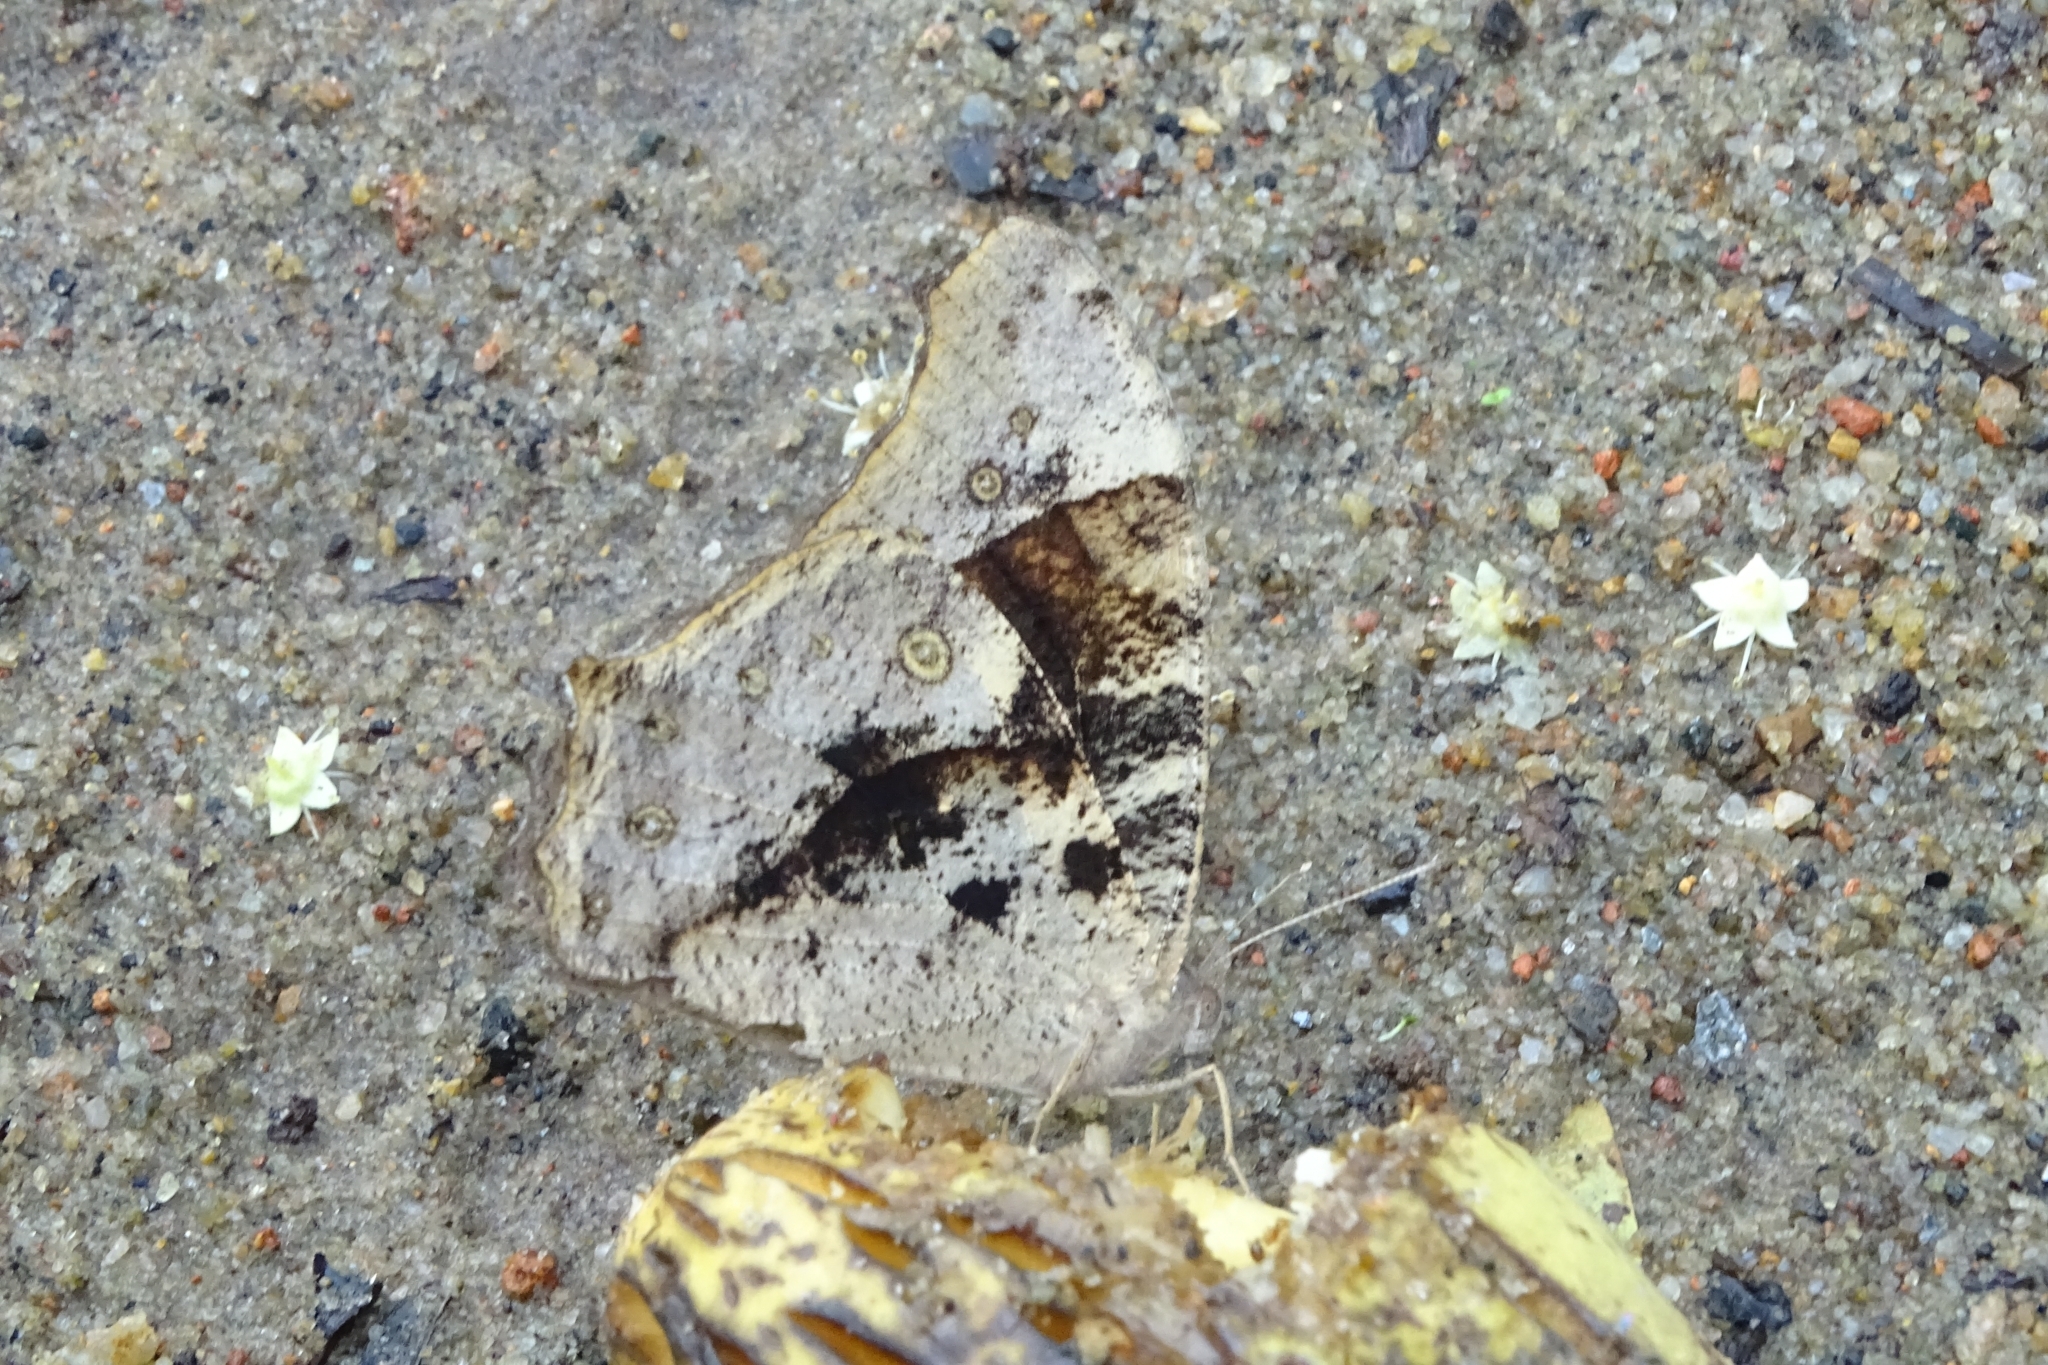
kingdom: Animalia
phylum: Arthropoda
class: Insecta
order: Lepidoptera
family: Nymphalidae
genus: Melanitis
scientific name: Melanitis leda
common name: Twilight brown
